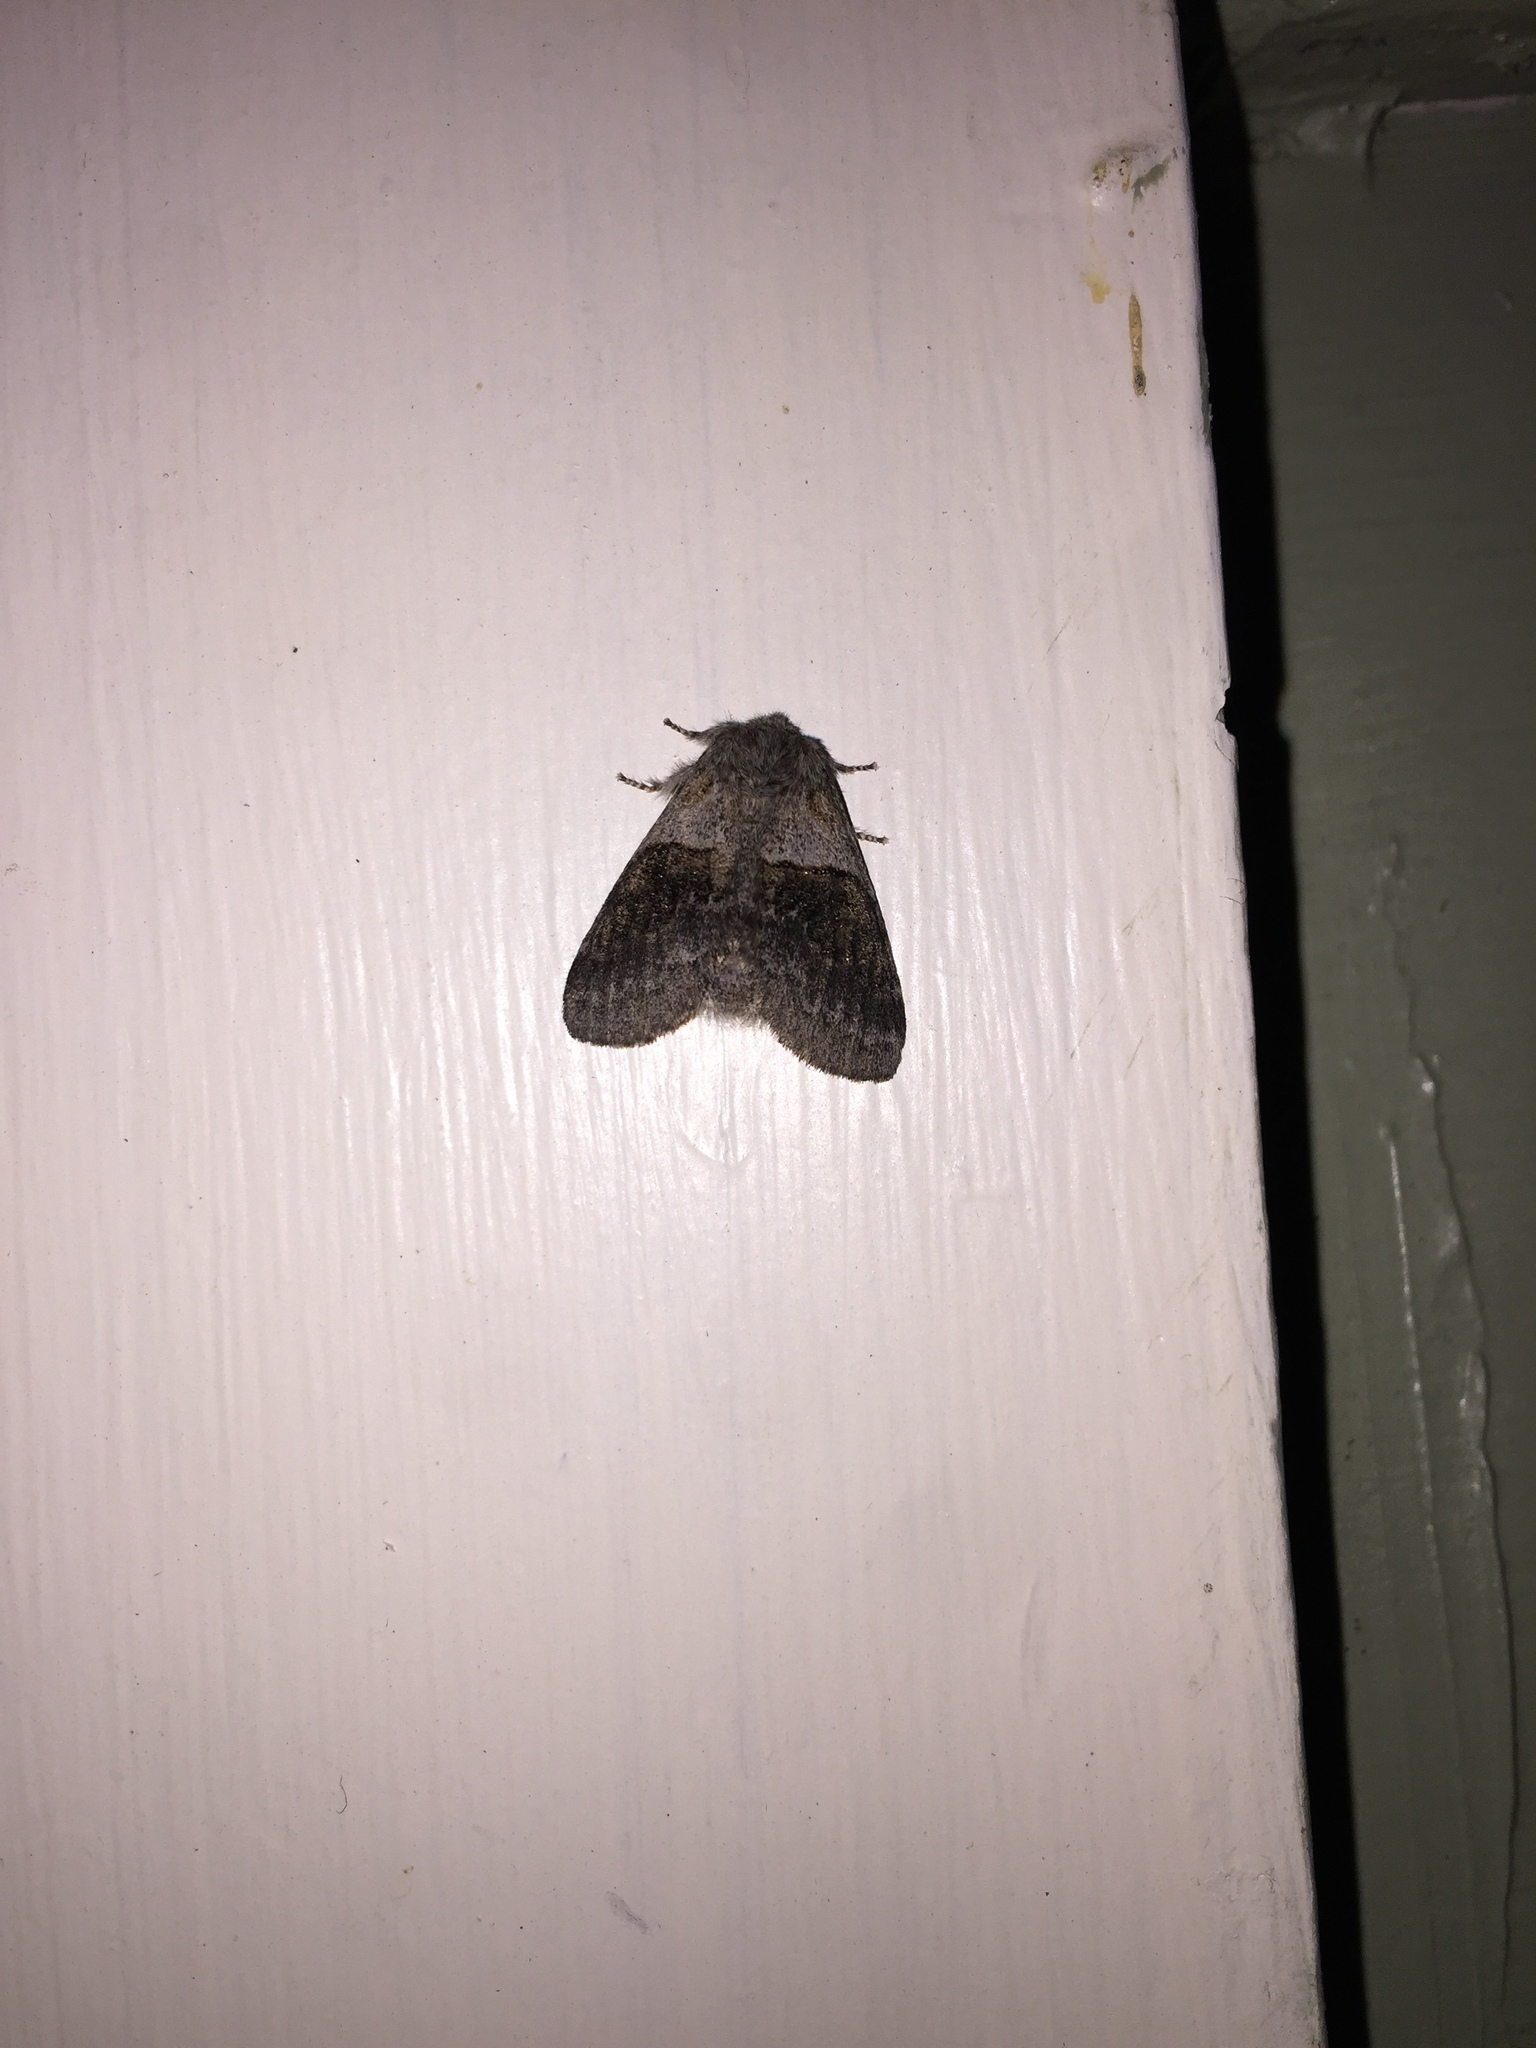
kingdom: Animalia
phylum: Arthropoda
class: Insecta
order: Lepidoptera
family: Notodontidae
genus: Gluphisia
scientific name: Gluphisia septentrionis
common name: Common gluphisia
